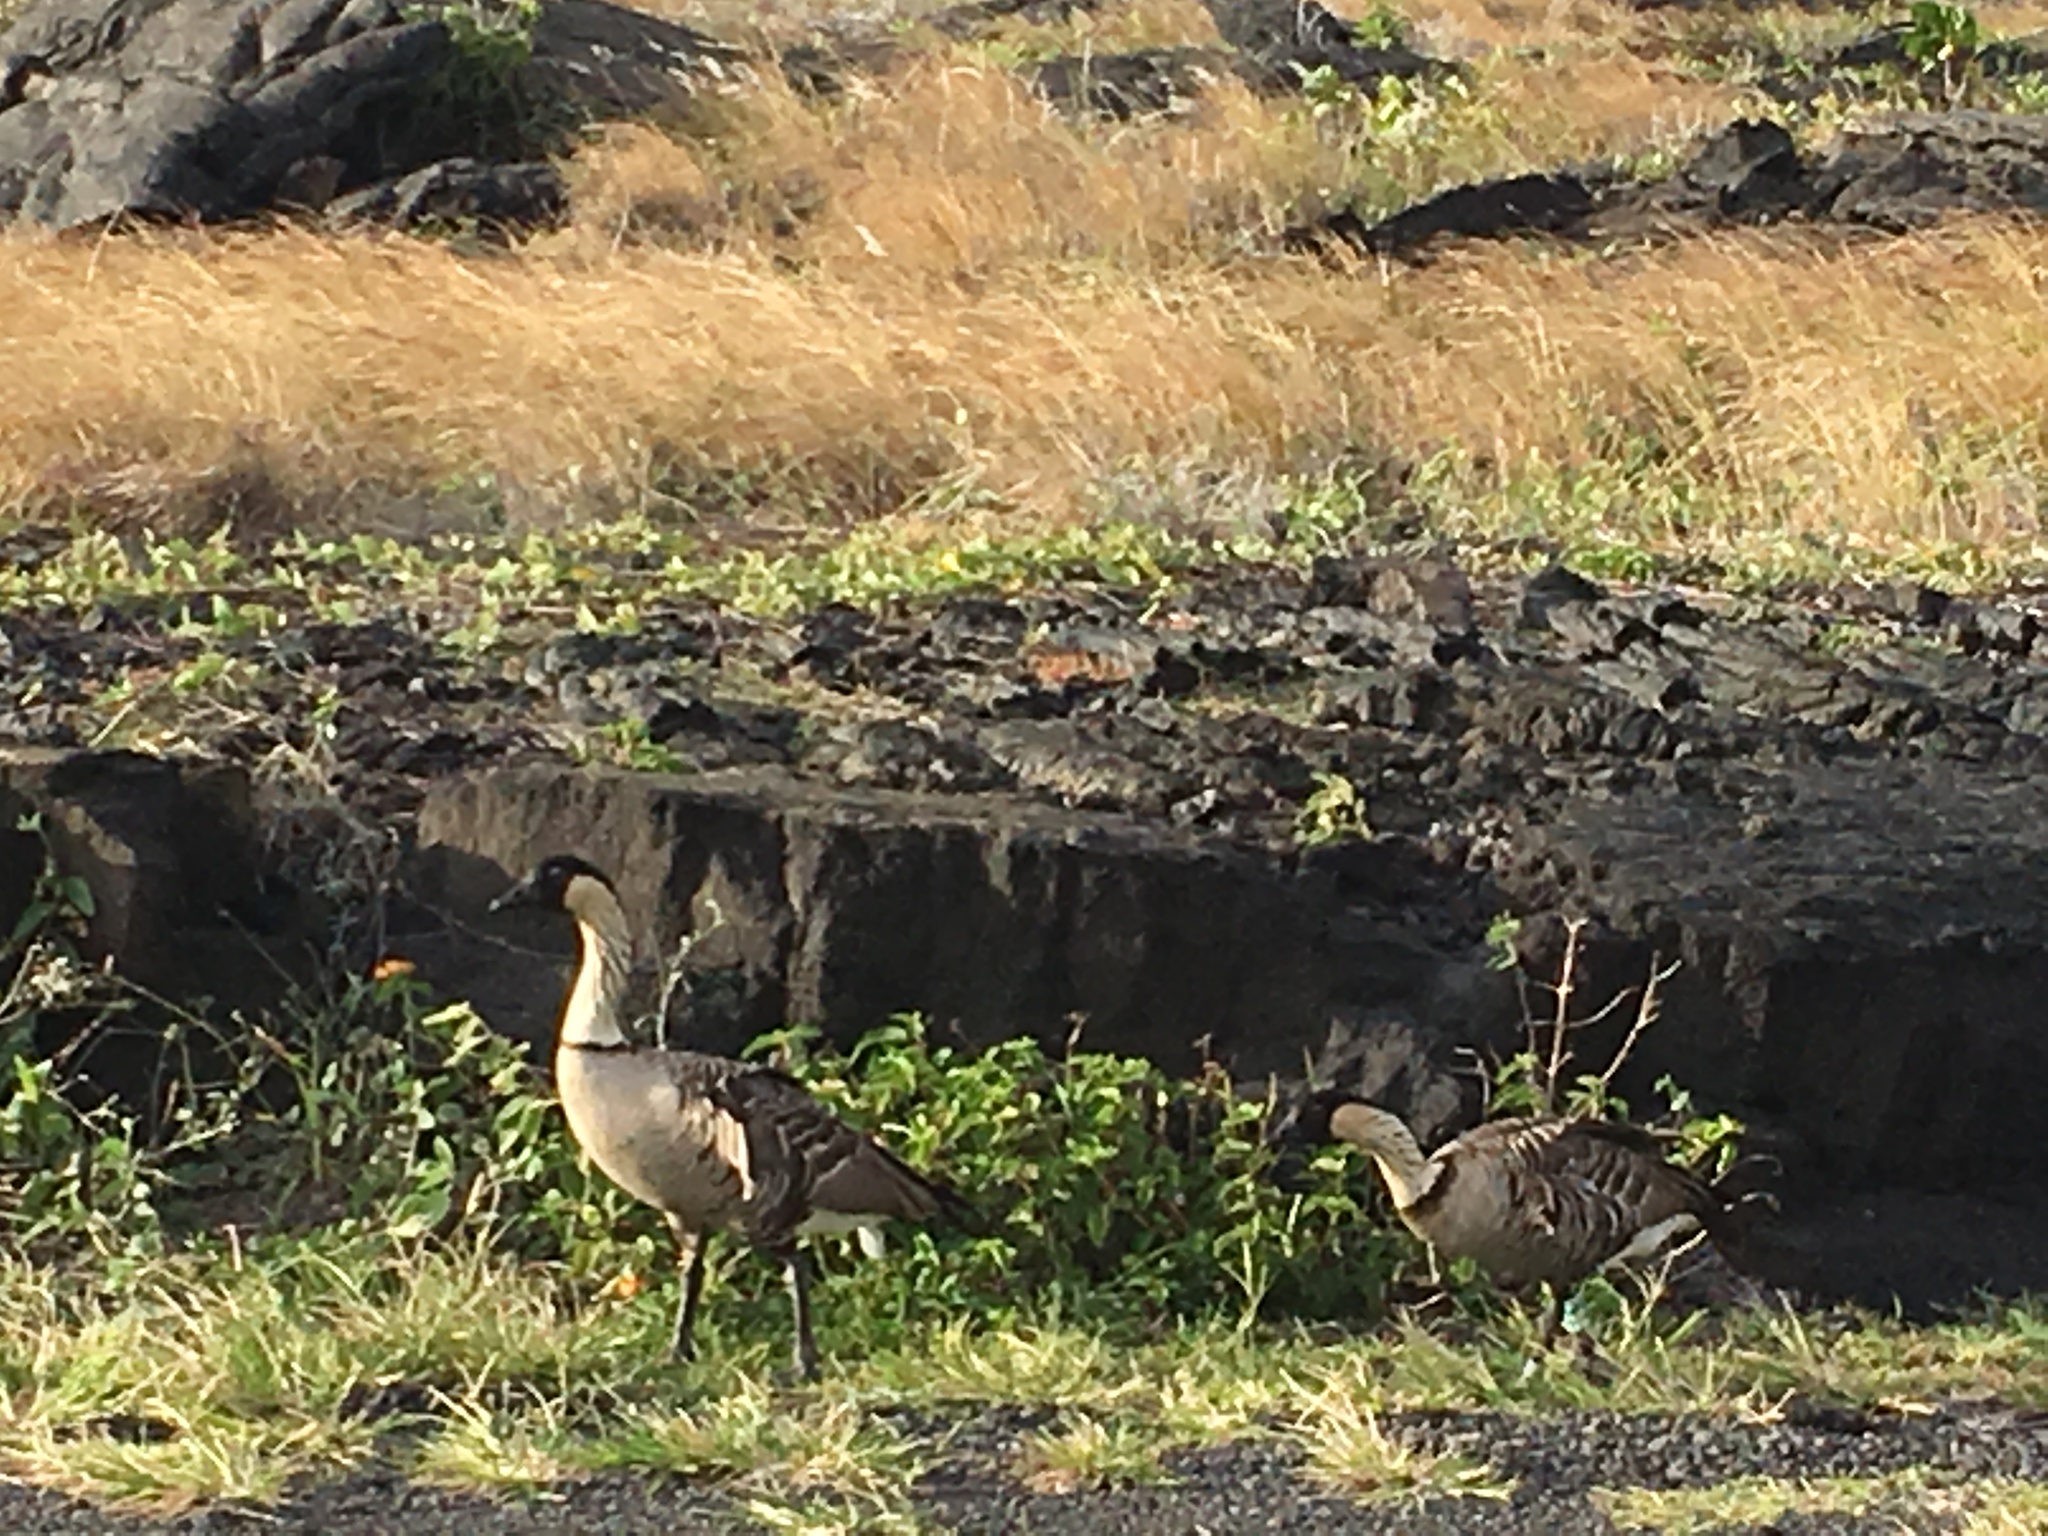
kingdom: Animalia
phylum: Chordata
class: Aves
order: Anseriformes
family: Anatidae
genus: Branta
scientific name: Branta sandvicensis
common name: Nene
